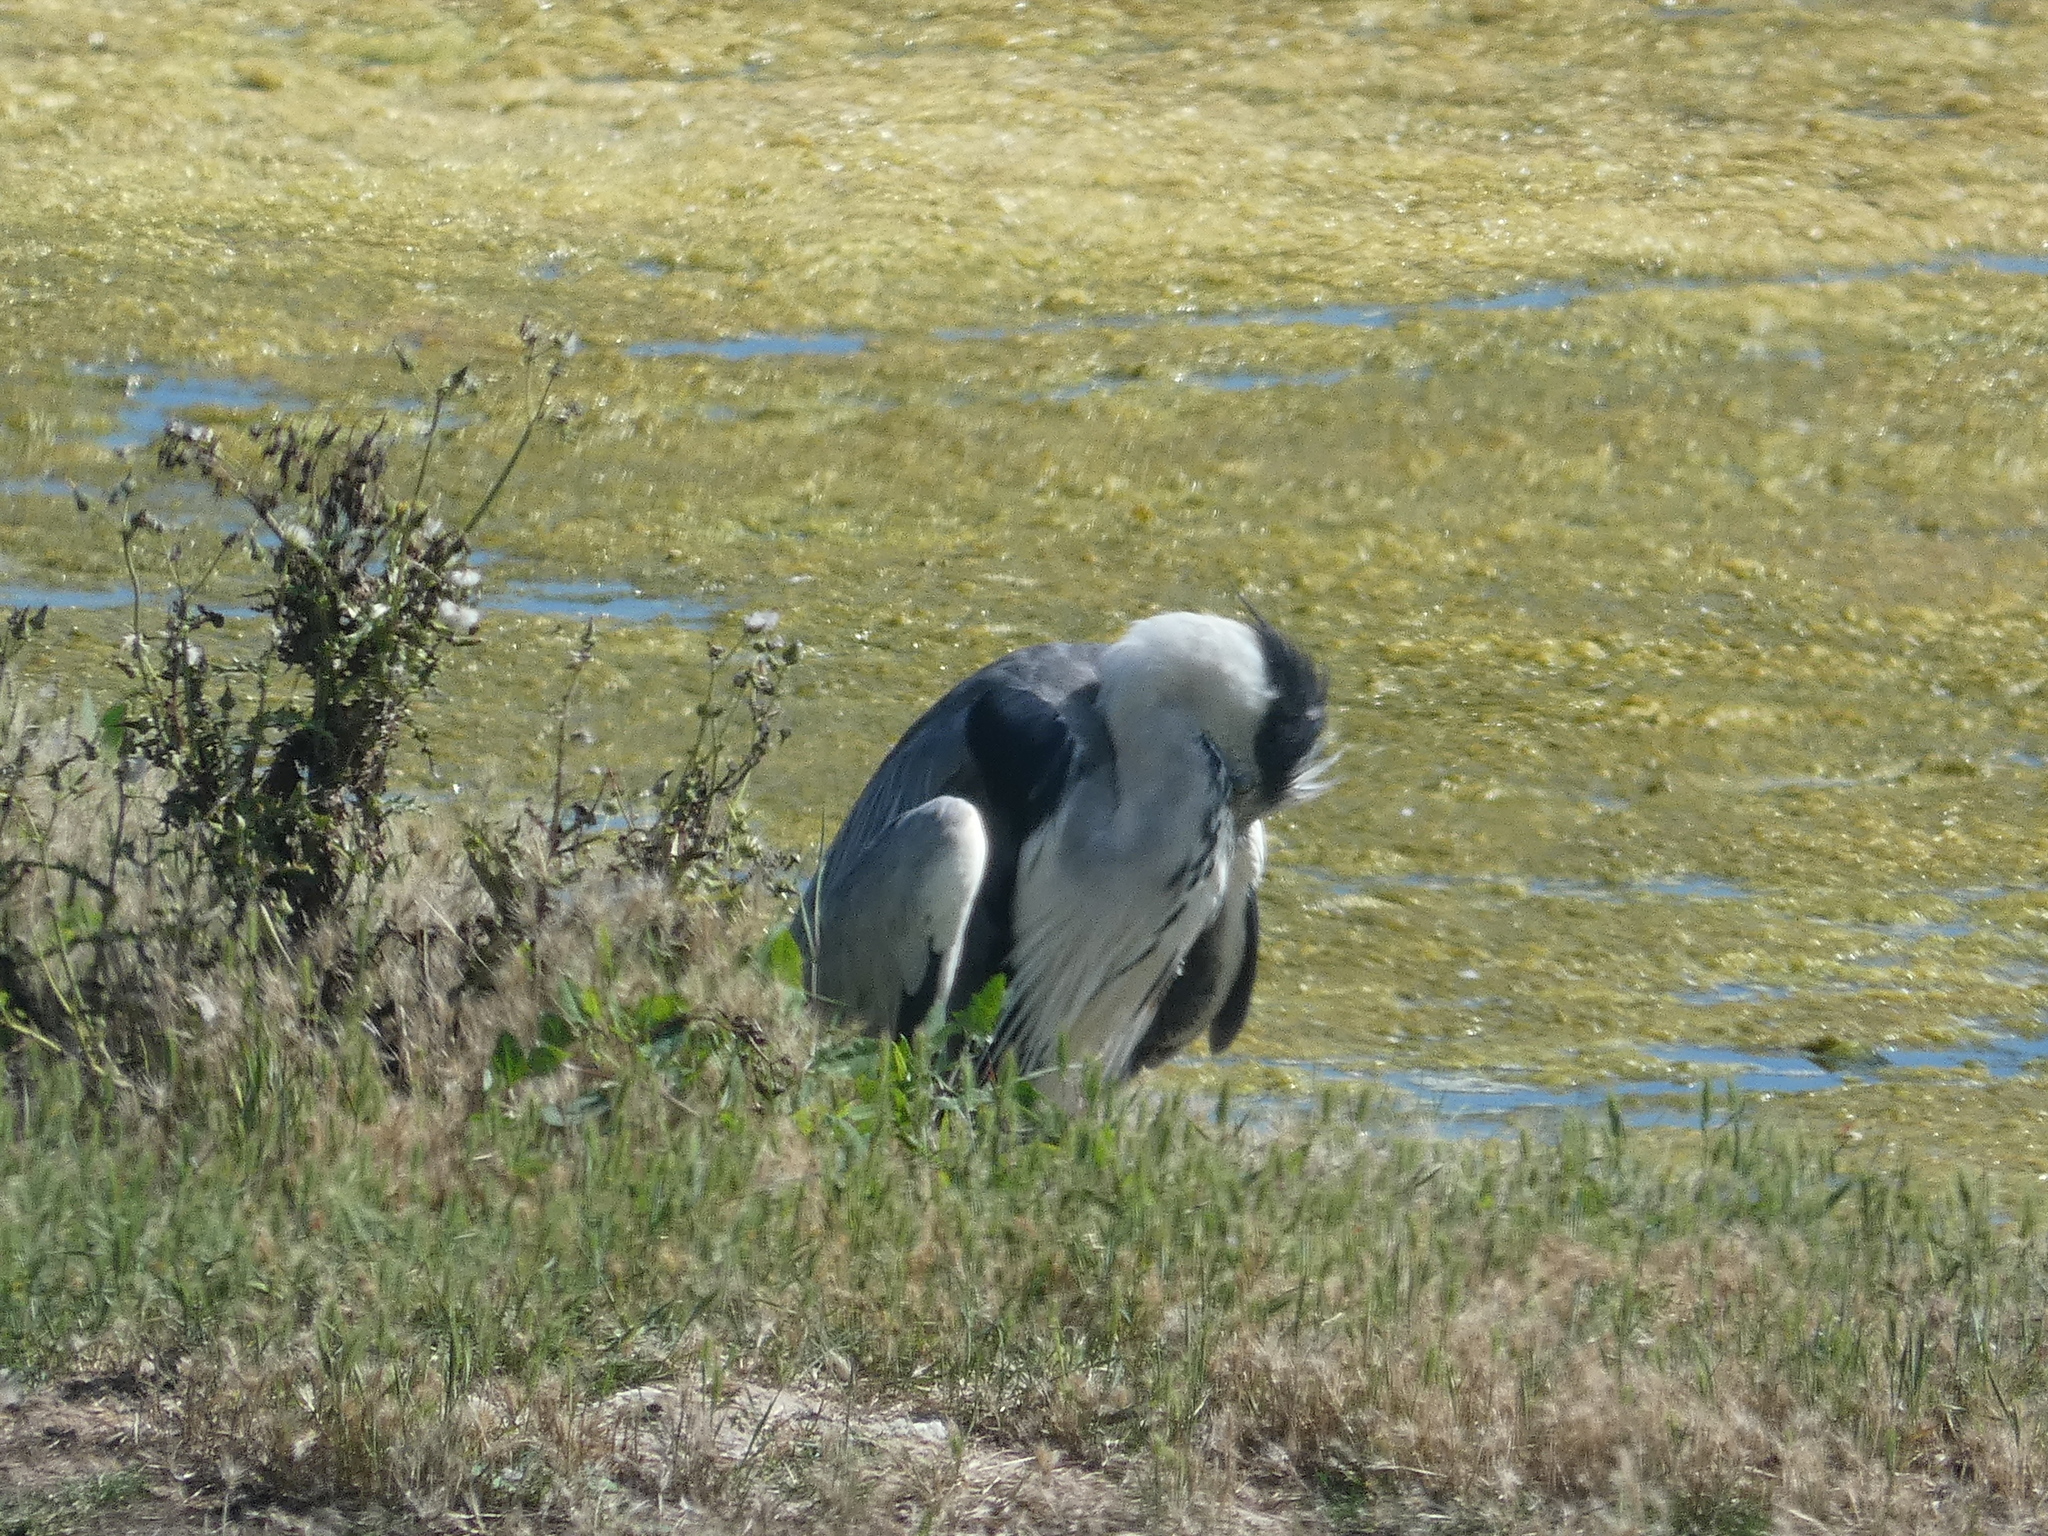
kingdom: Animalia
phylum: Chordata
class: Aves
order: Pelecaniformes
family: Ardeidae
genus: Ardea
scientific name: Ardea cinerea
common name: Grey heron
